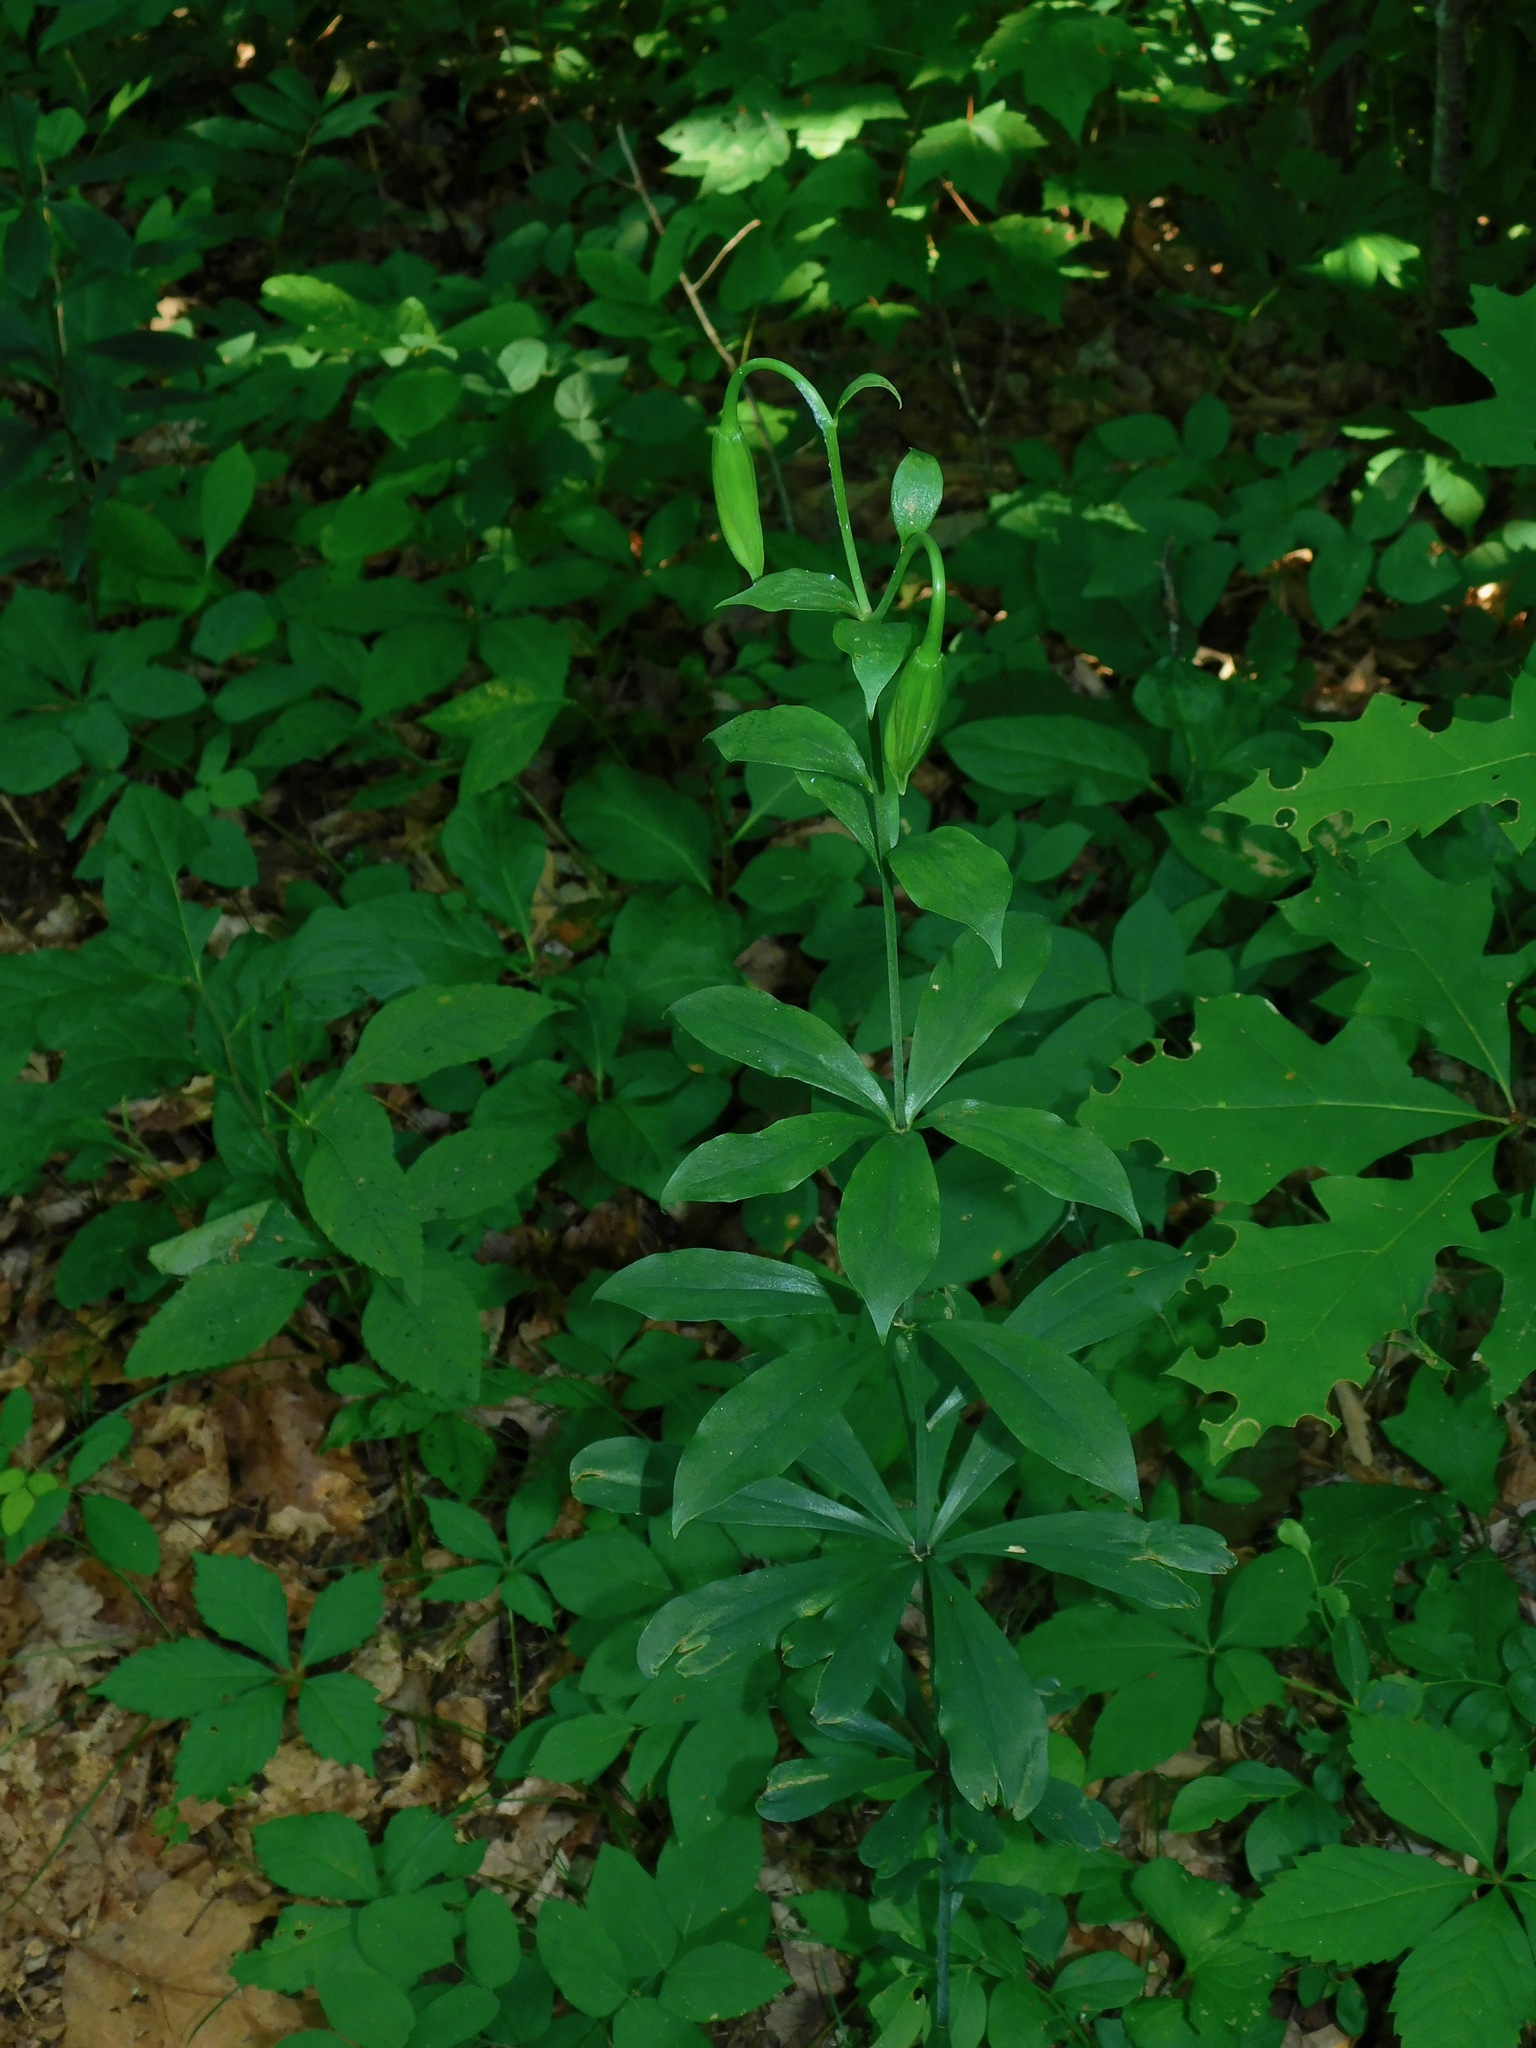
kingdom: Plantae
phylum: Tracheophyta
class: Liliopsida
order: Liliales
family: Liliaceae
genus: Lilium
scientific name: Lilium michauxii
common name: Carolina lily
